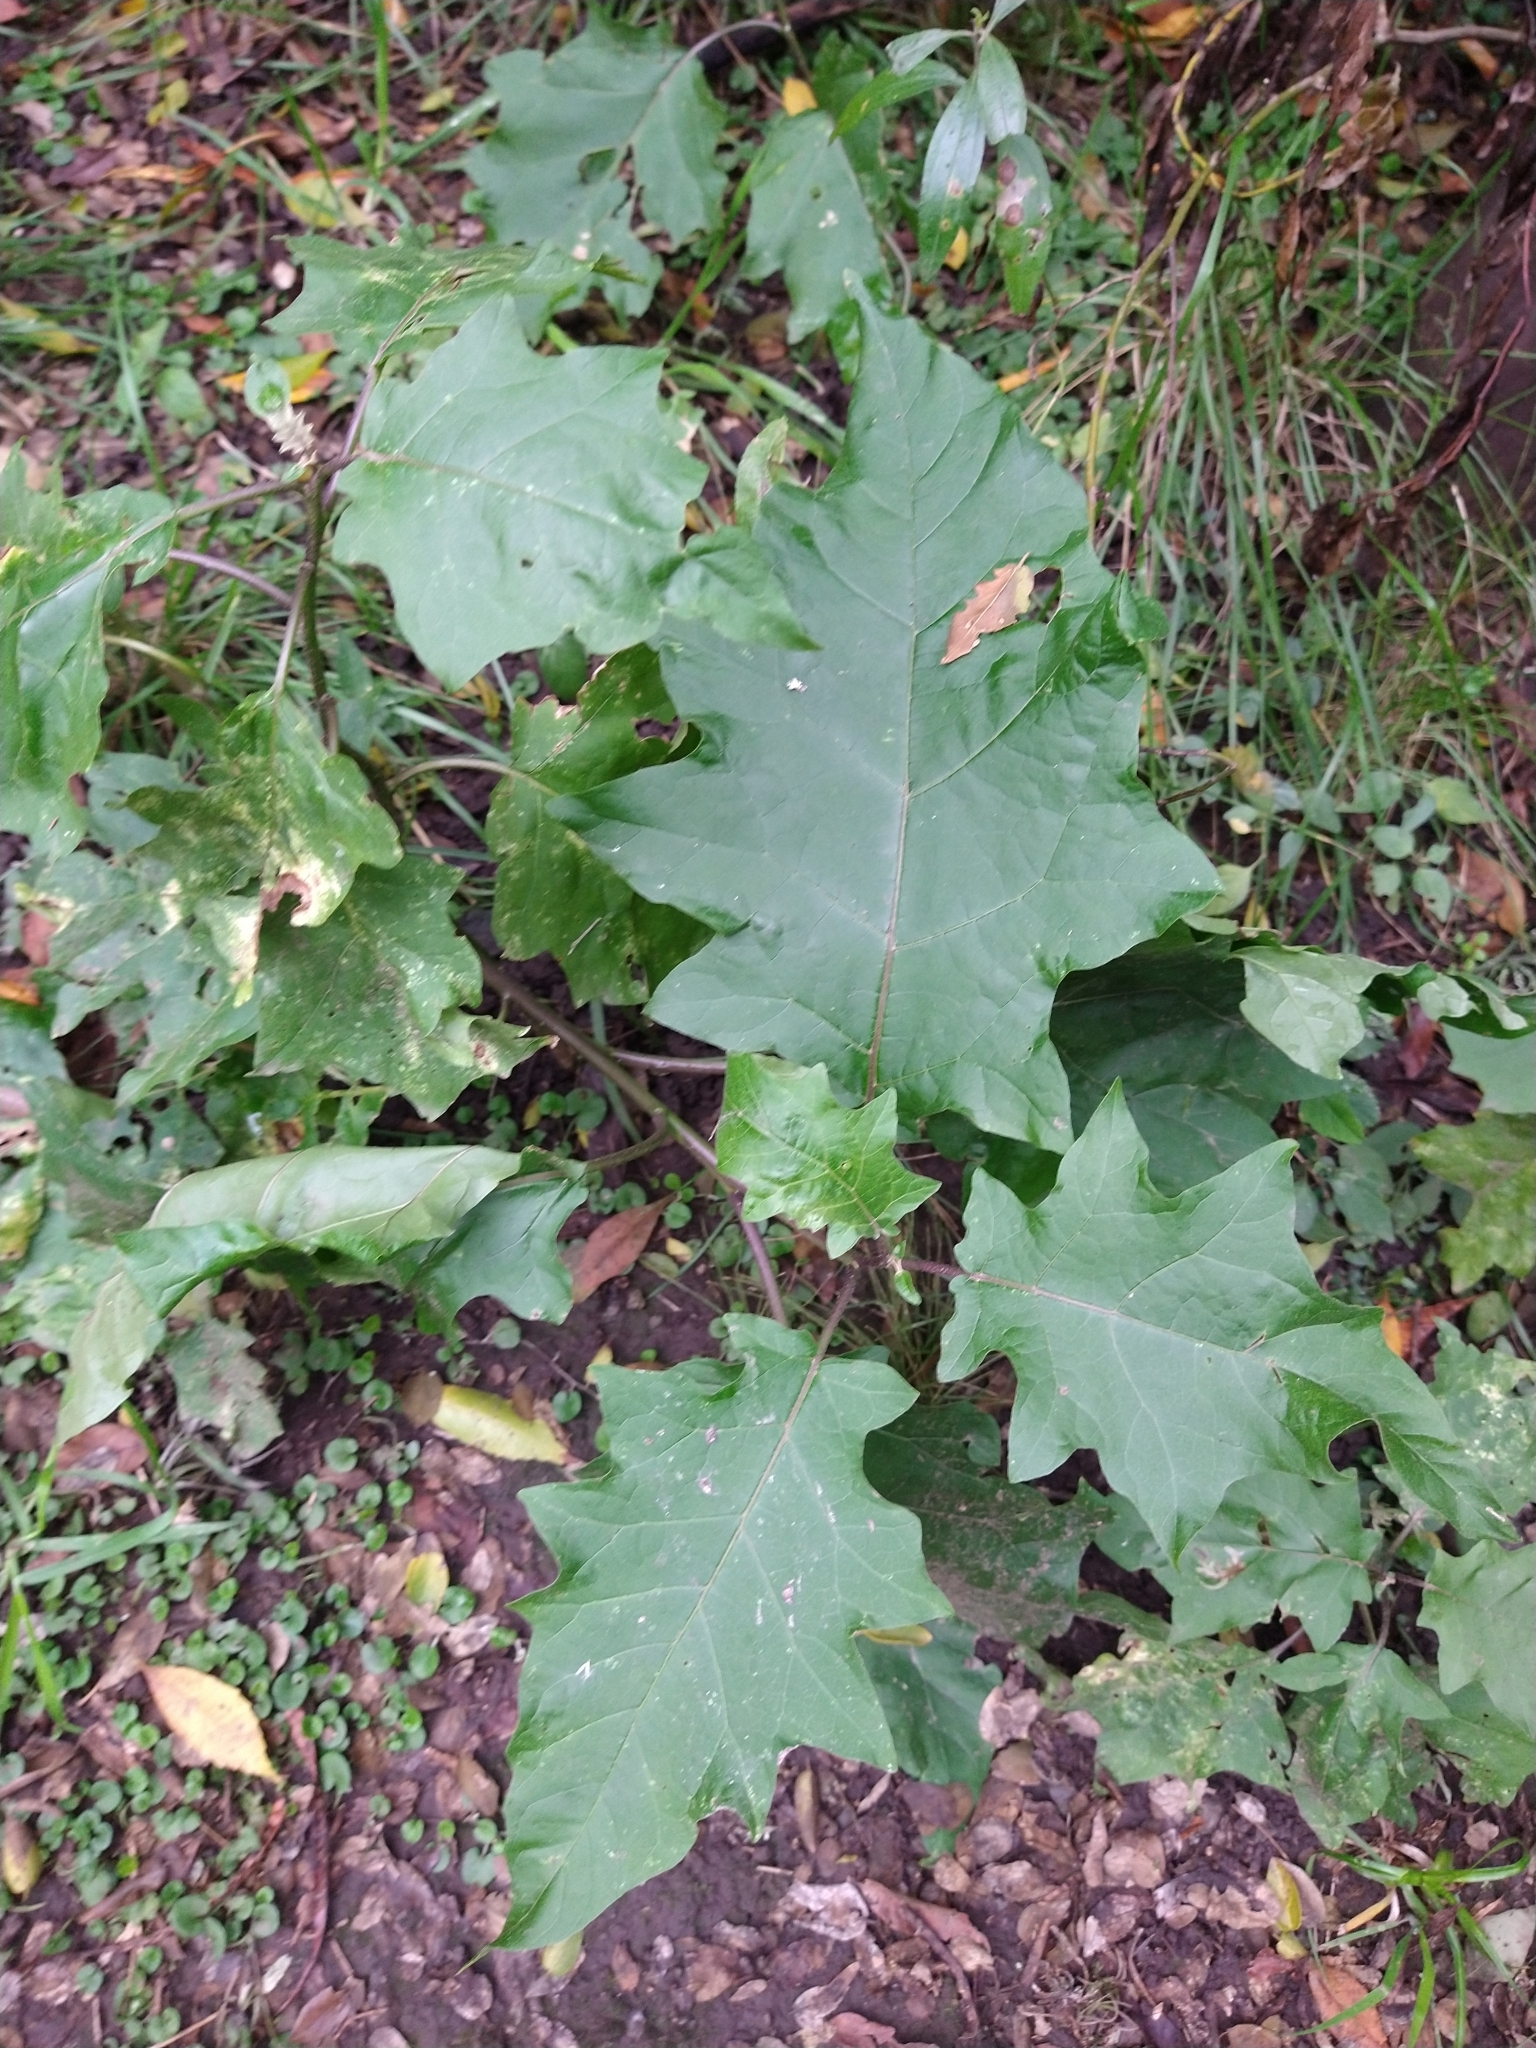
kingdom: Plantae
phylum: Tracheophyta
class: Magnoliopsida
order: Solanales
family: Solanaceae
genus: Solanum
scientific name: Solanum bonariense
